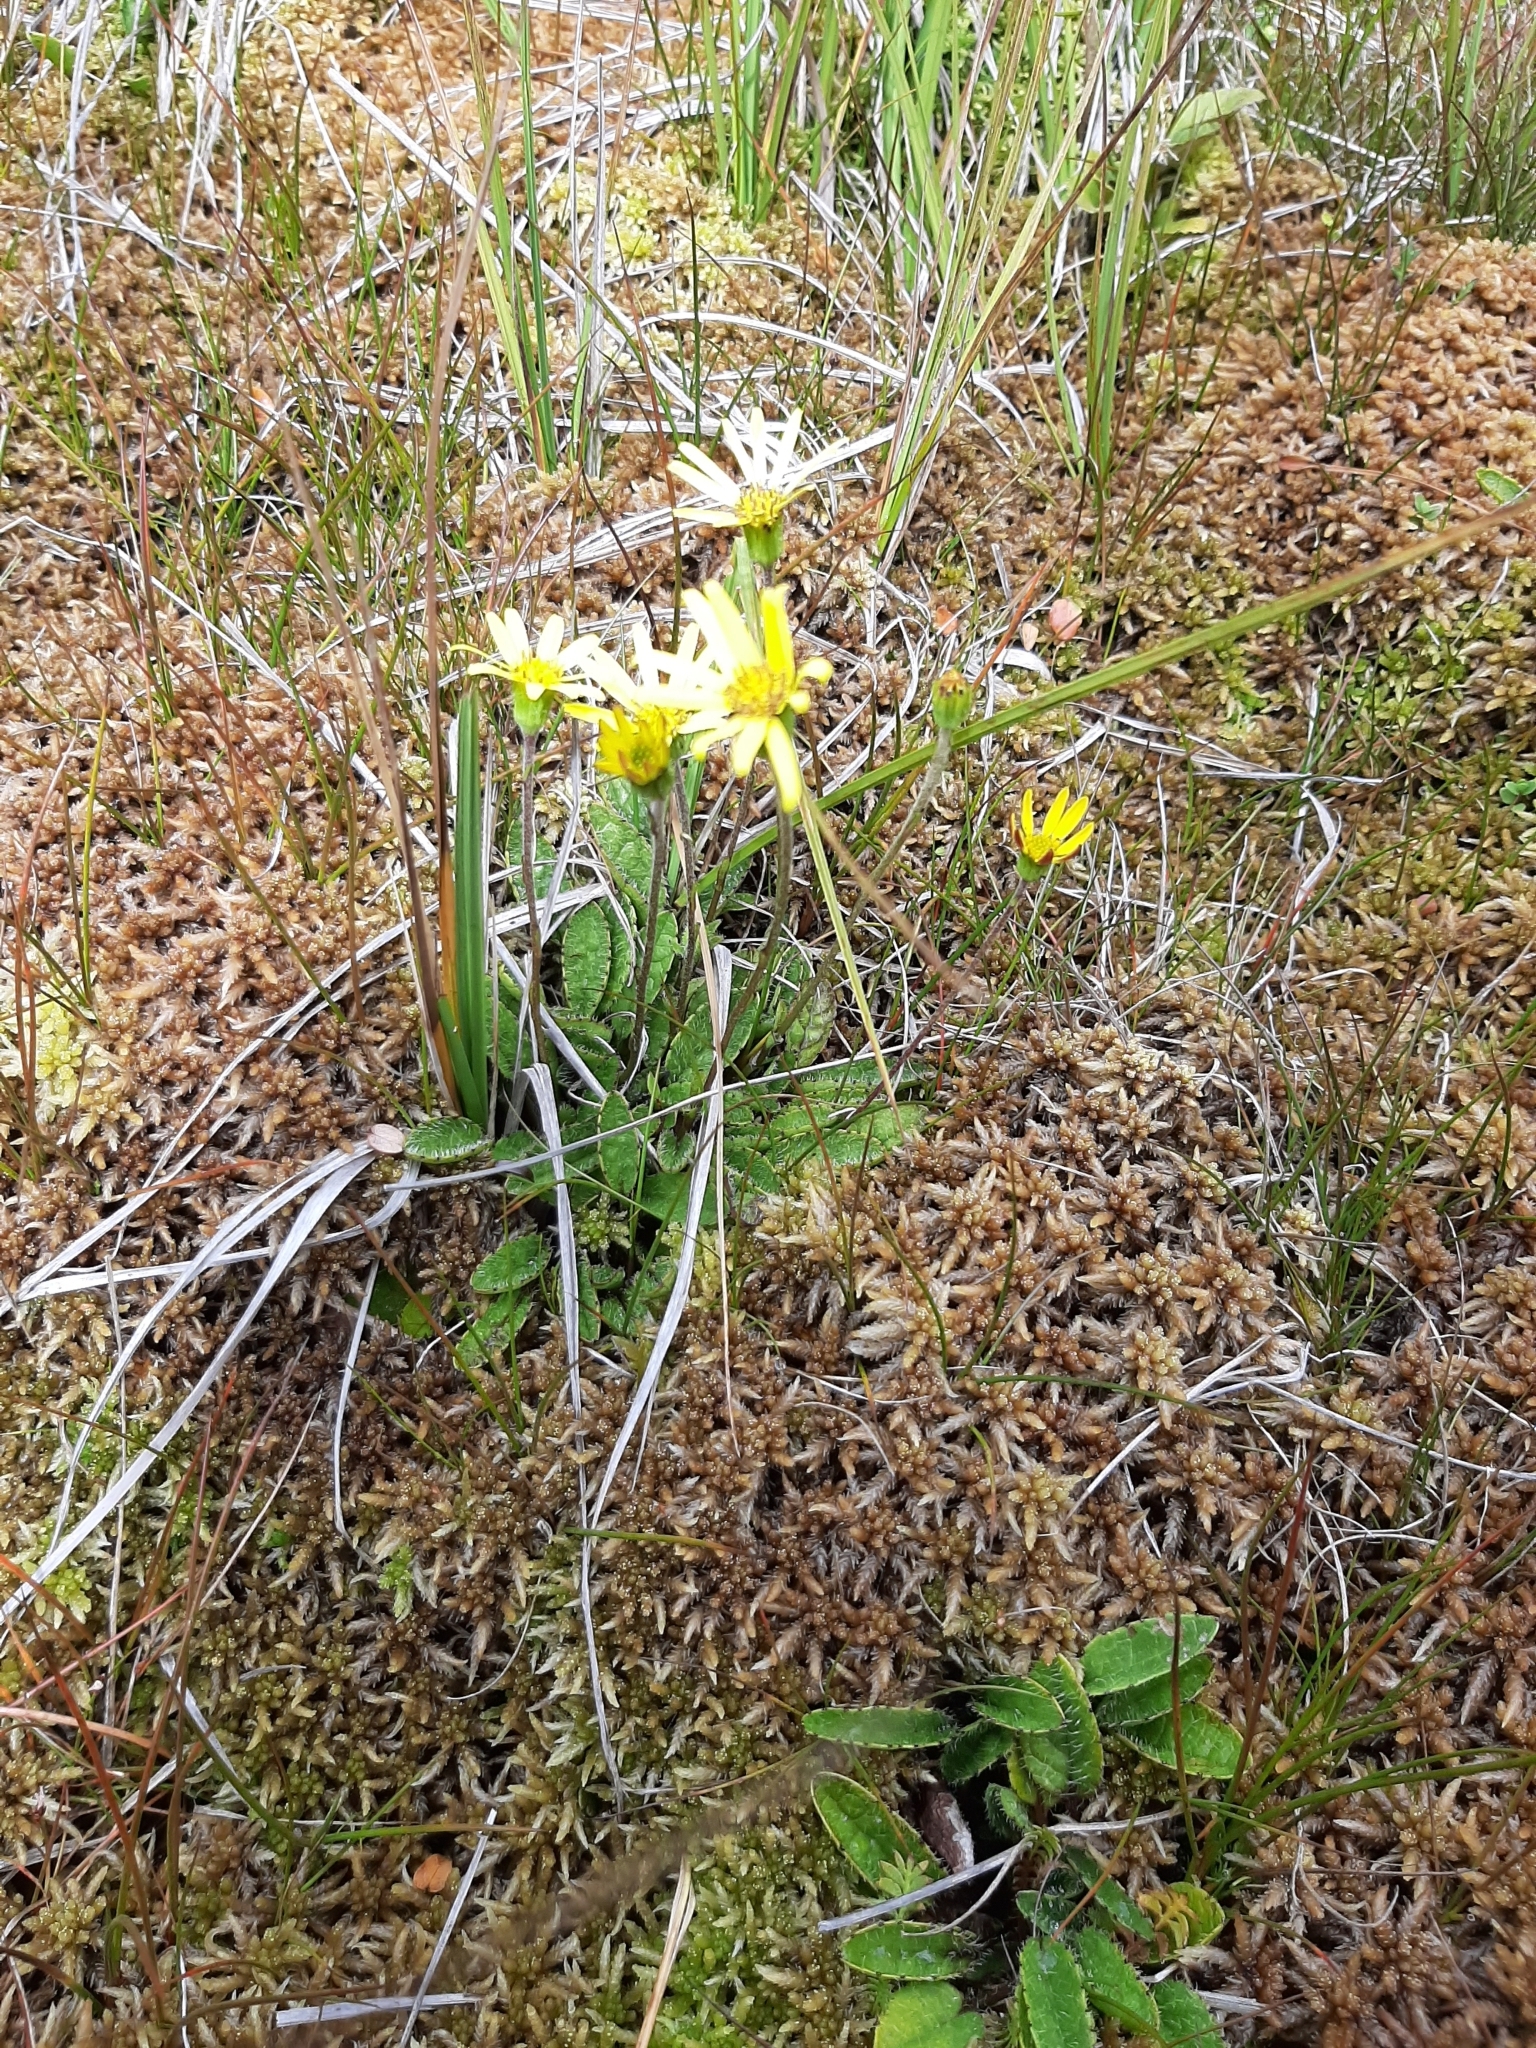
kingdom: Plantae
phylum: Tracheophyta
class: Magnoliopsida
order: Asterales
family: Asteraceae
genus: Brachyglottis
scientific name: Brachyglottis bellidioides
